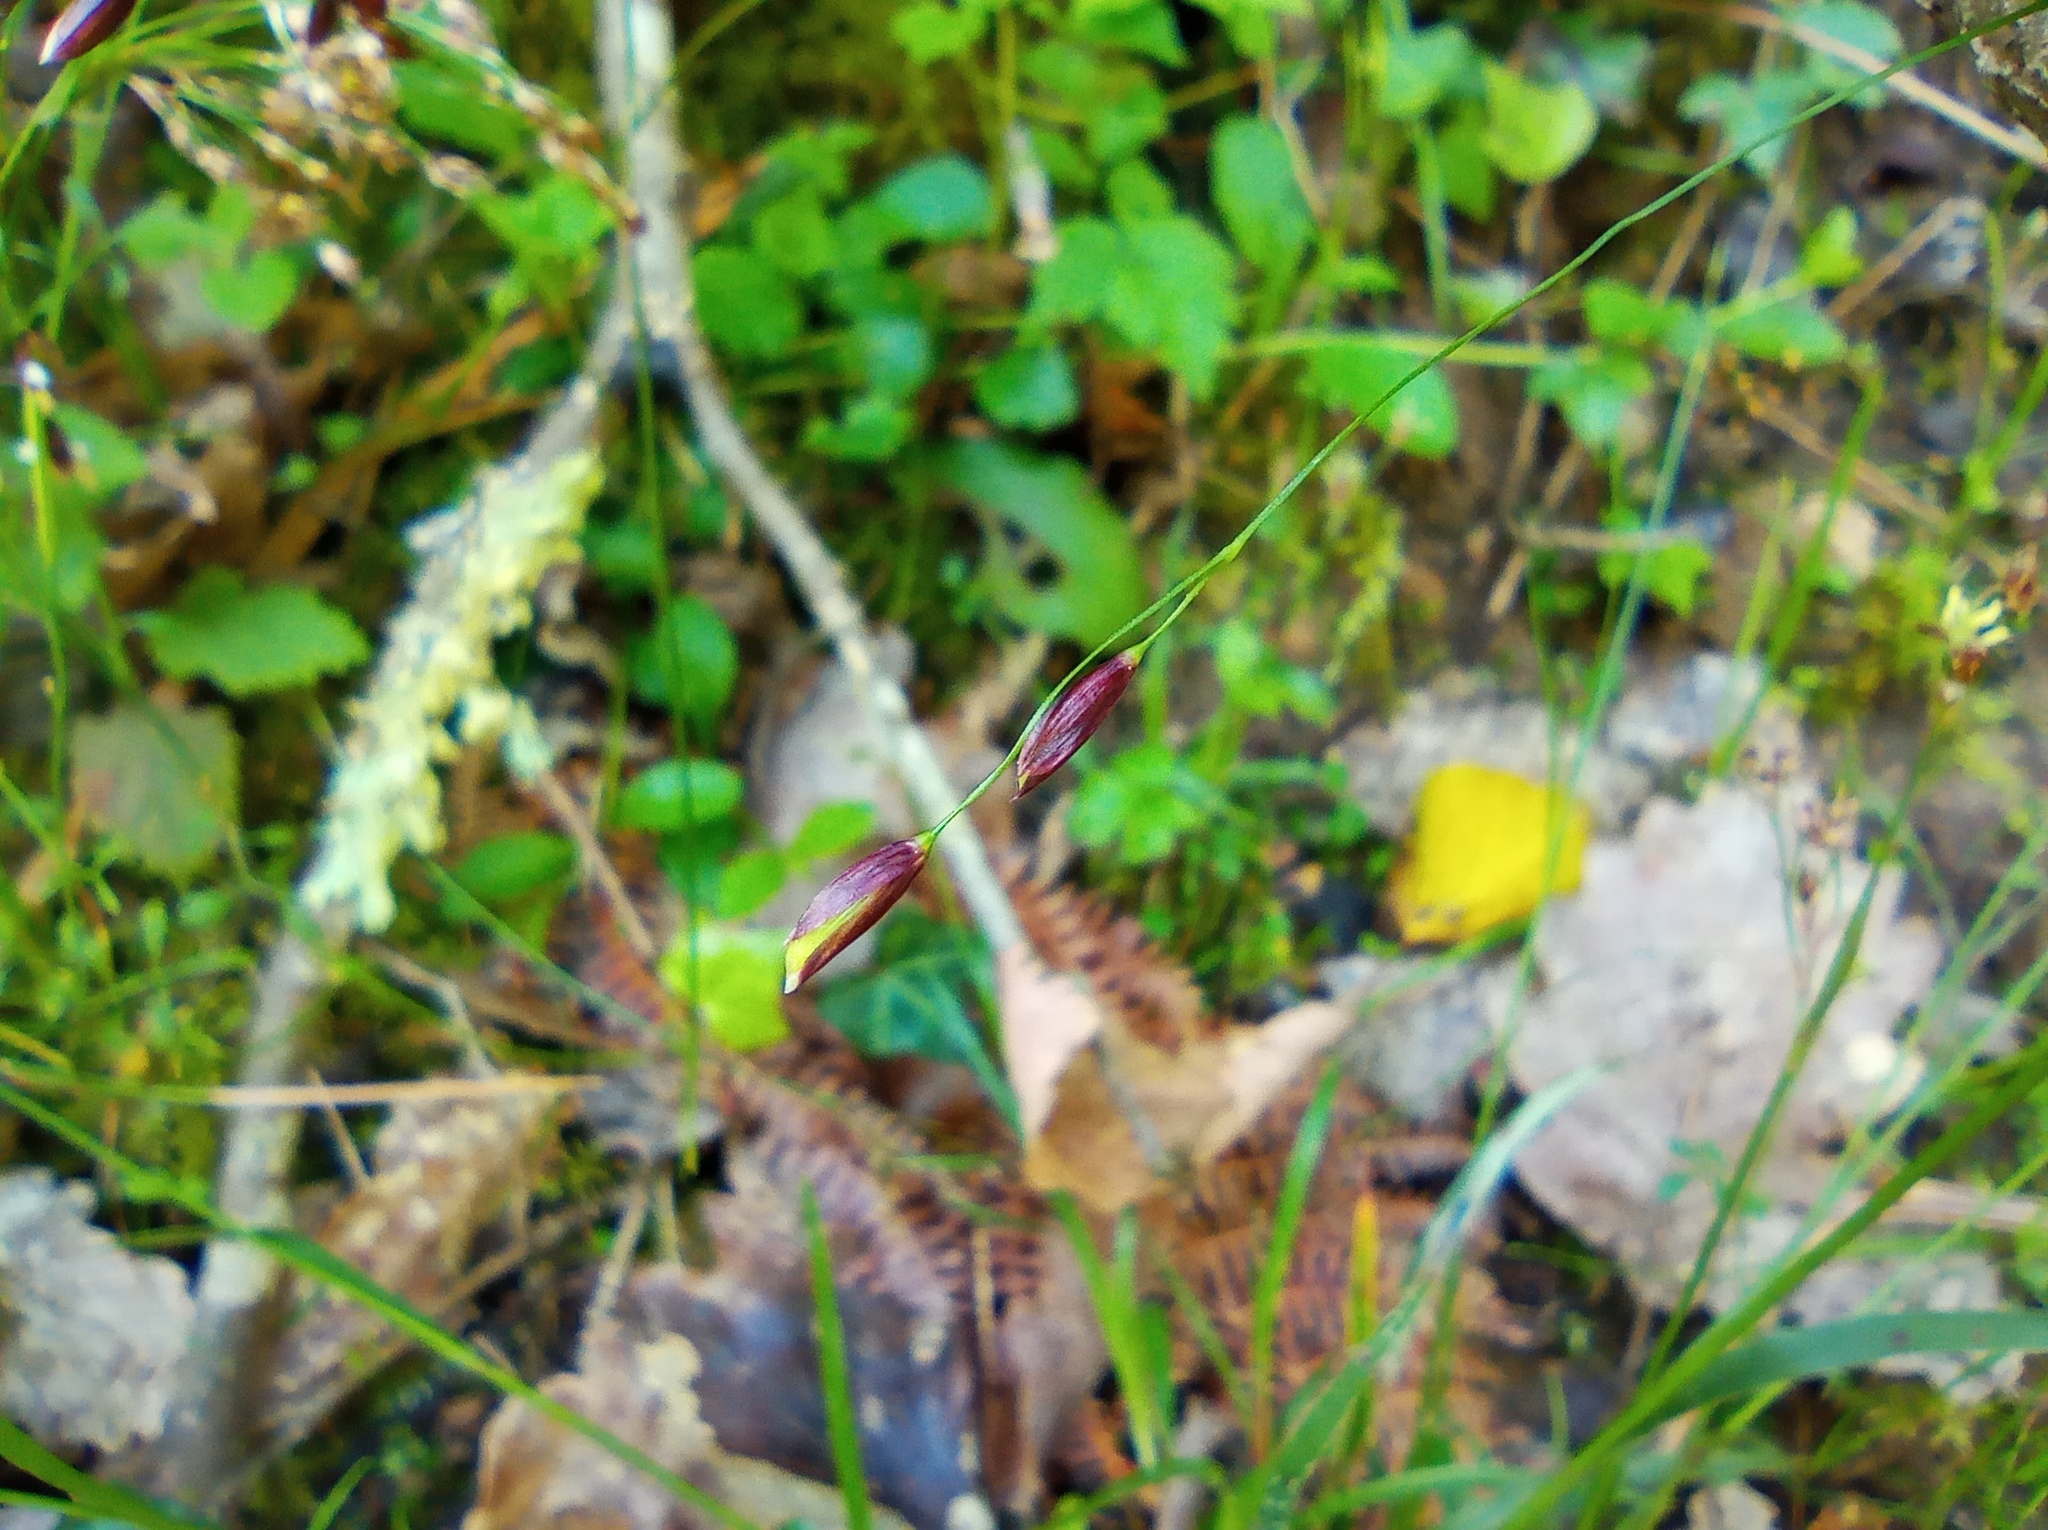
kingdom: Plantae
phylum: Tracheophyta
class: Liliopsida
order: Poales
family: Poaceae
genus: Melica
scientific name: Melica uniflora
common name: Wood melick
